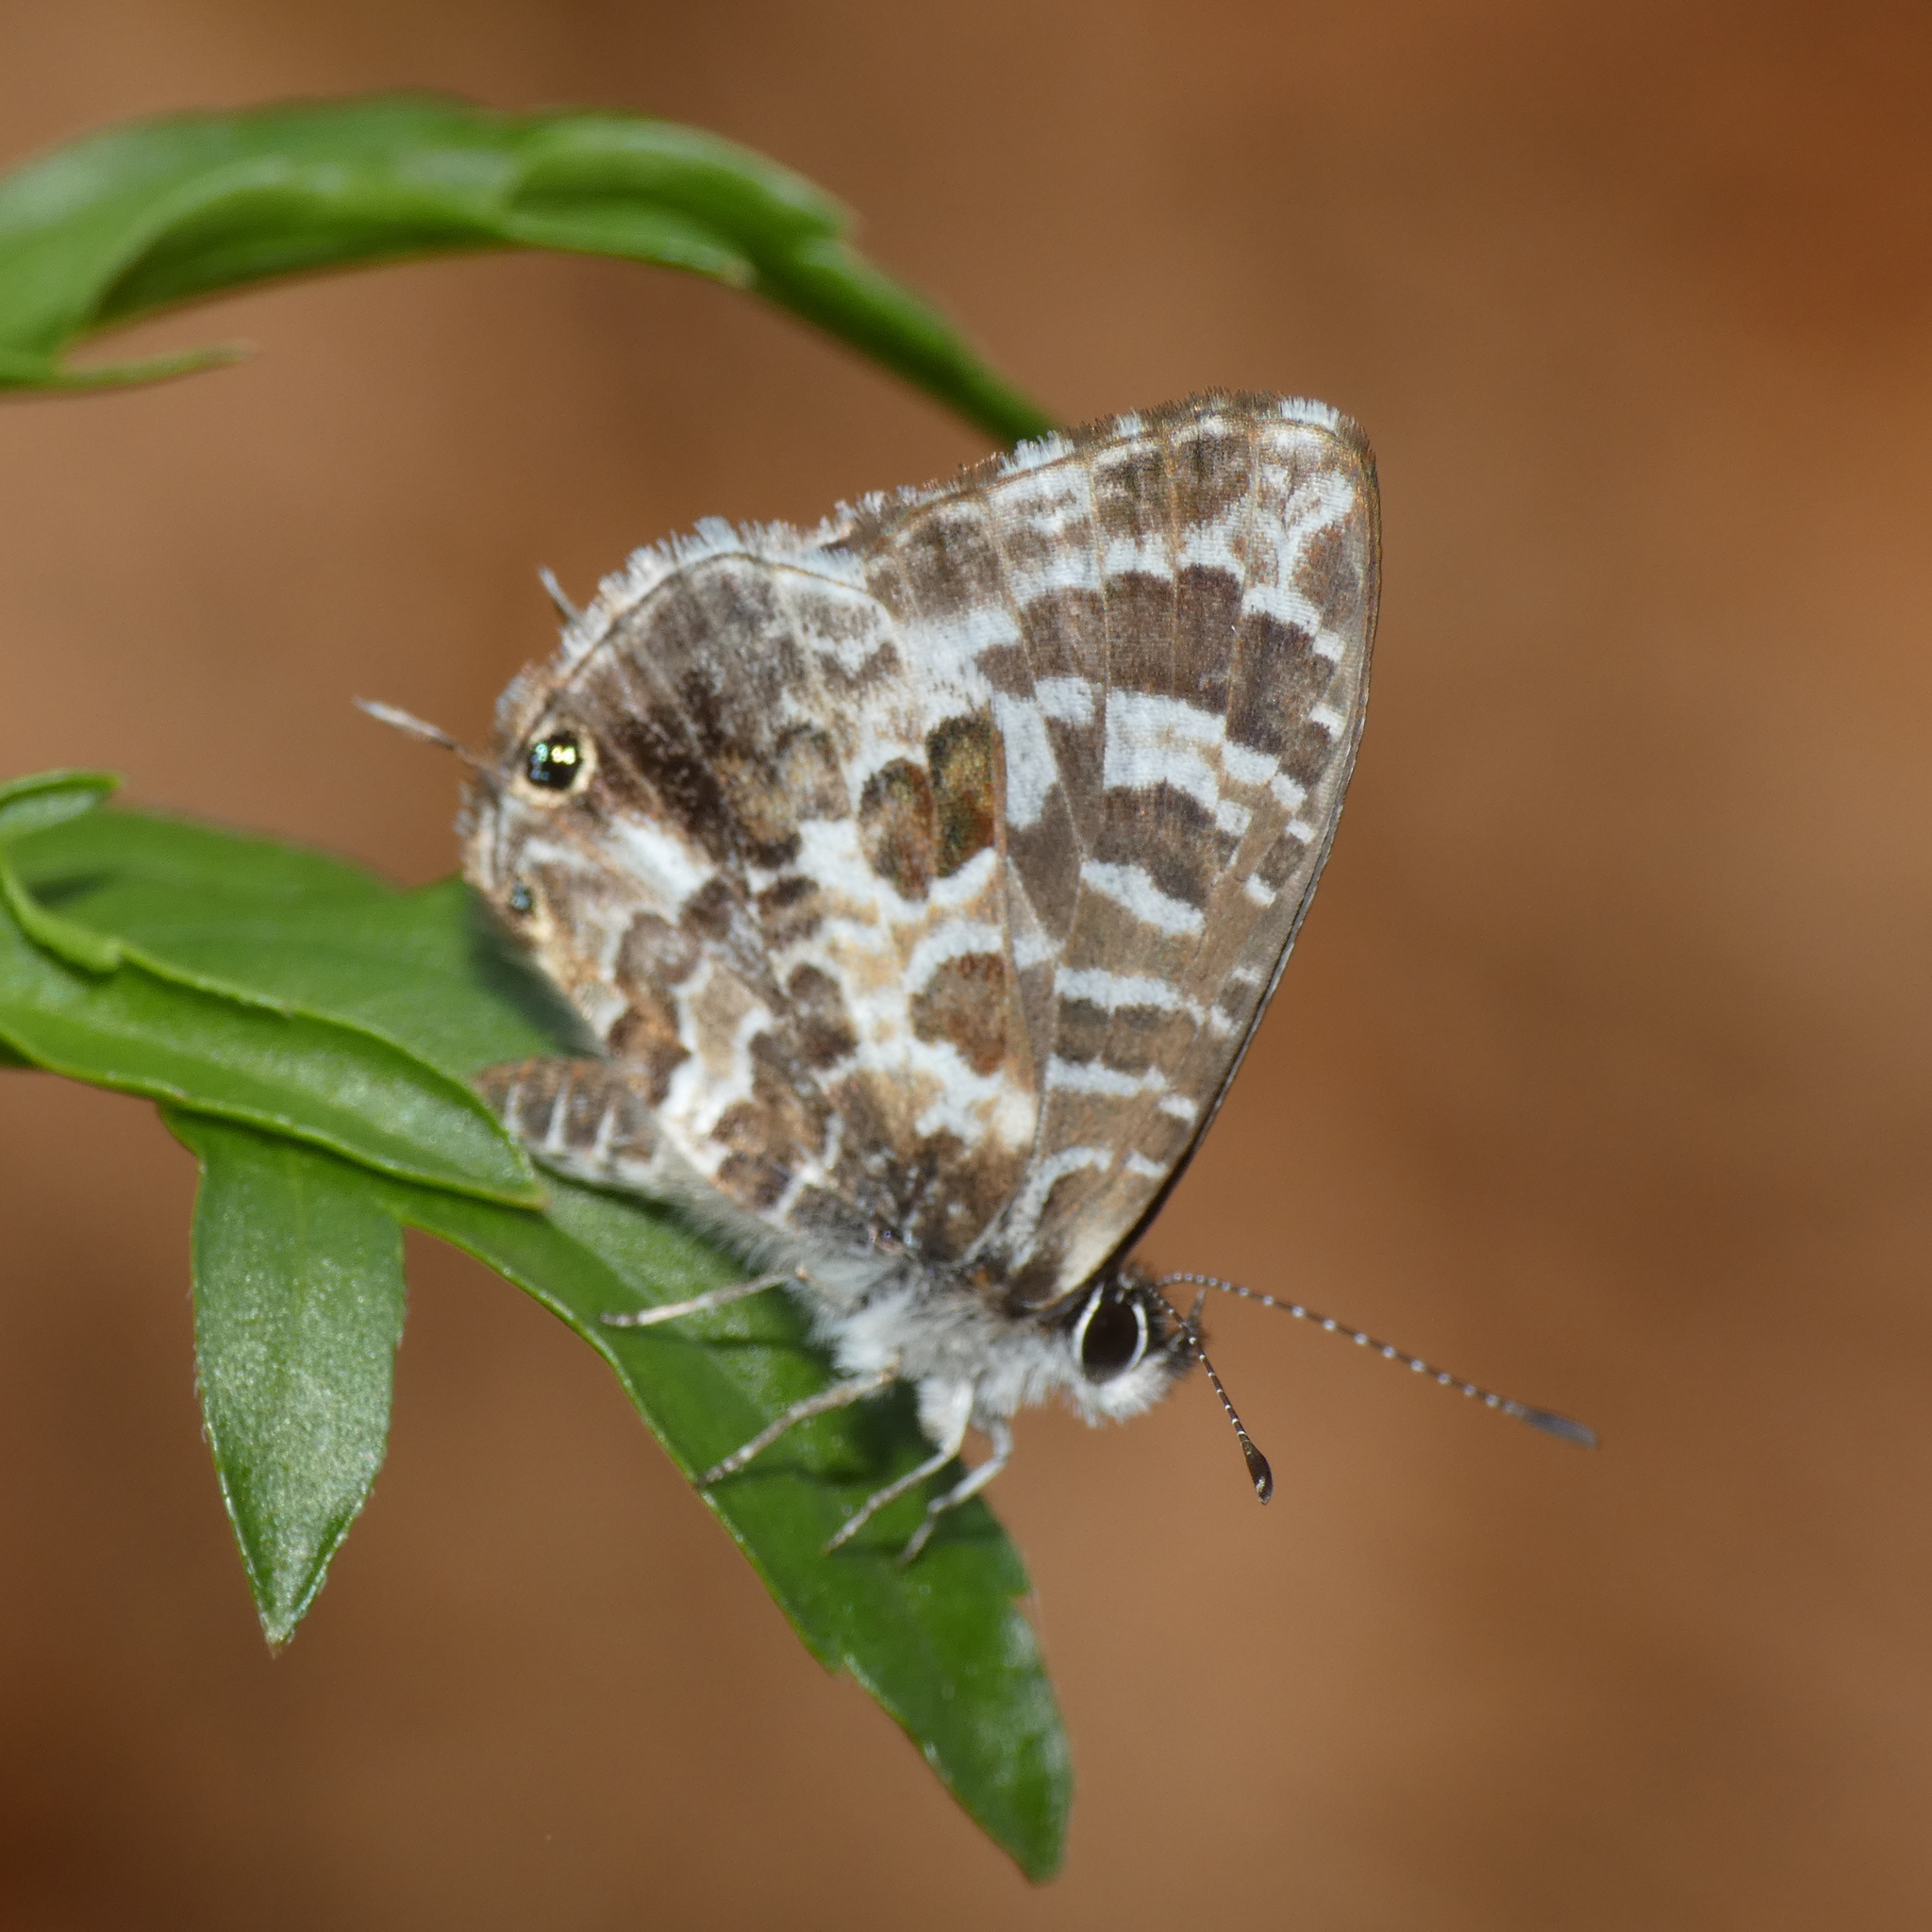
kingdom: Animalia
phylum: Arthropoda
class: Insecta
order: Lepidoptera
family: Lycaenidae
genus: Cacyreus
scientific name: Cacyreus lingeus
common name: Bush bronze
